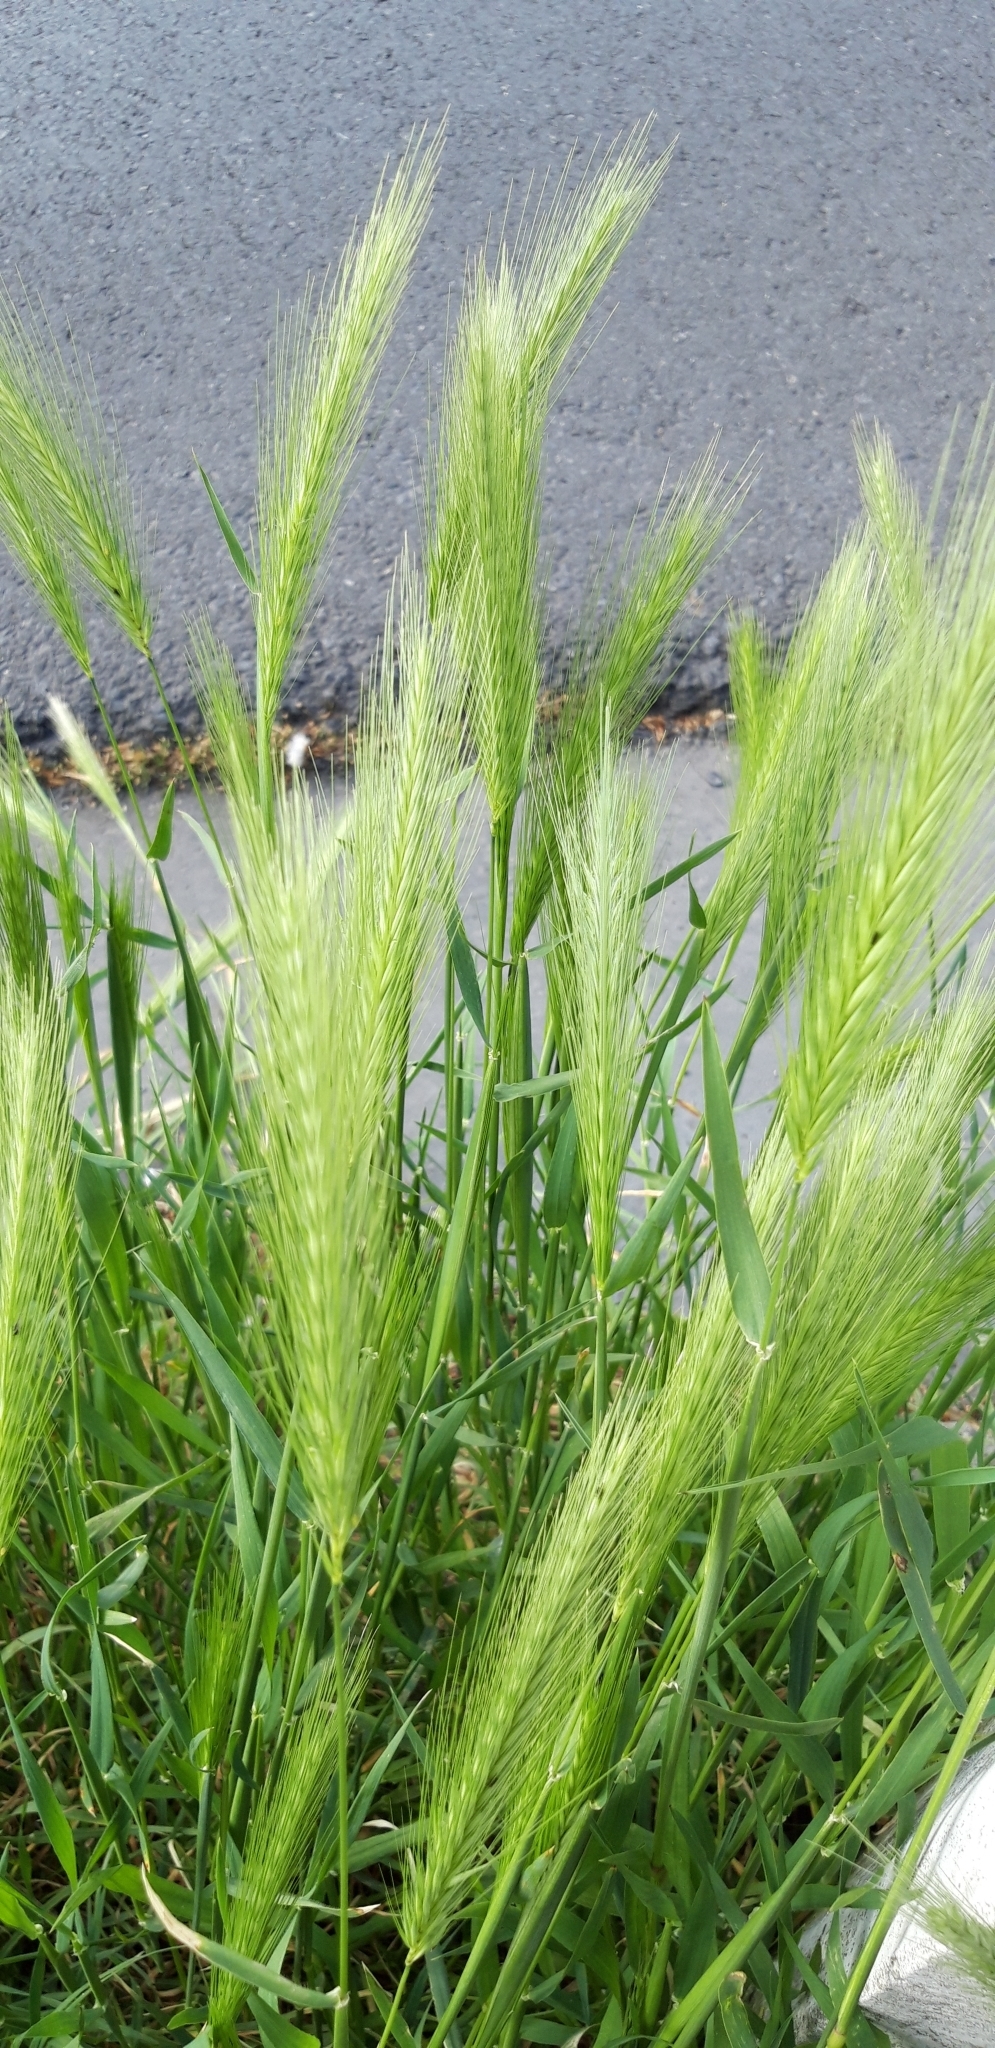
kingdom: Plantae
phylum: Tracheophyta
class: Liliopsida
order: Poales
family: Poaceae
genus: Hordeum
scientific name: Hordeum murinum
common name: Wall barley
